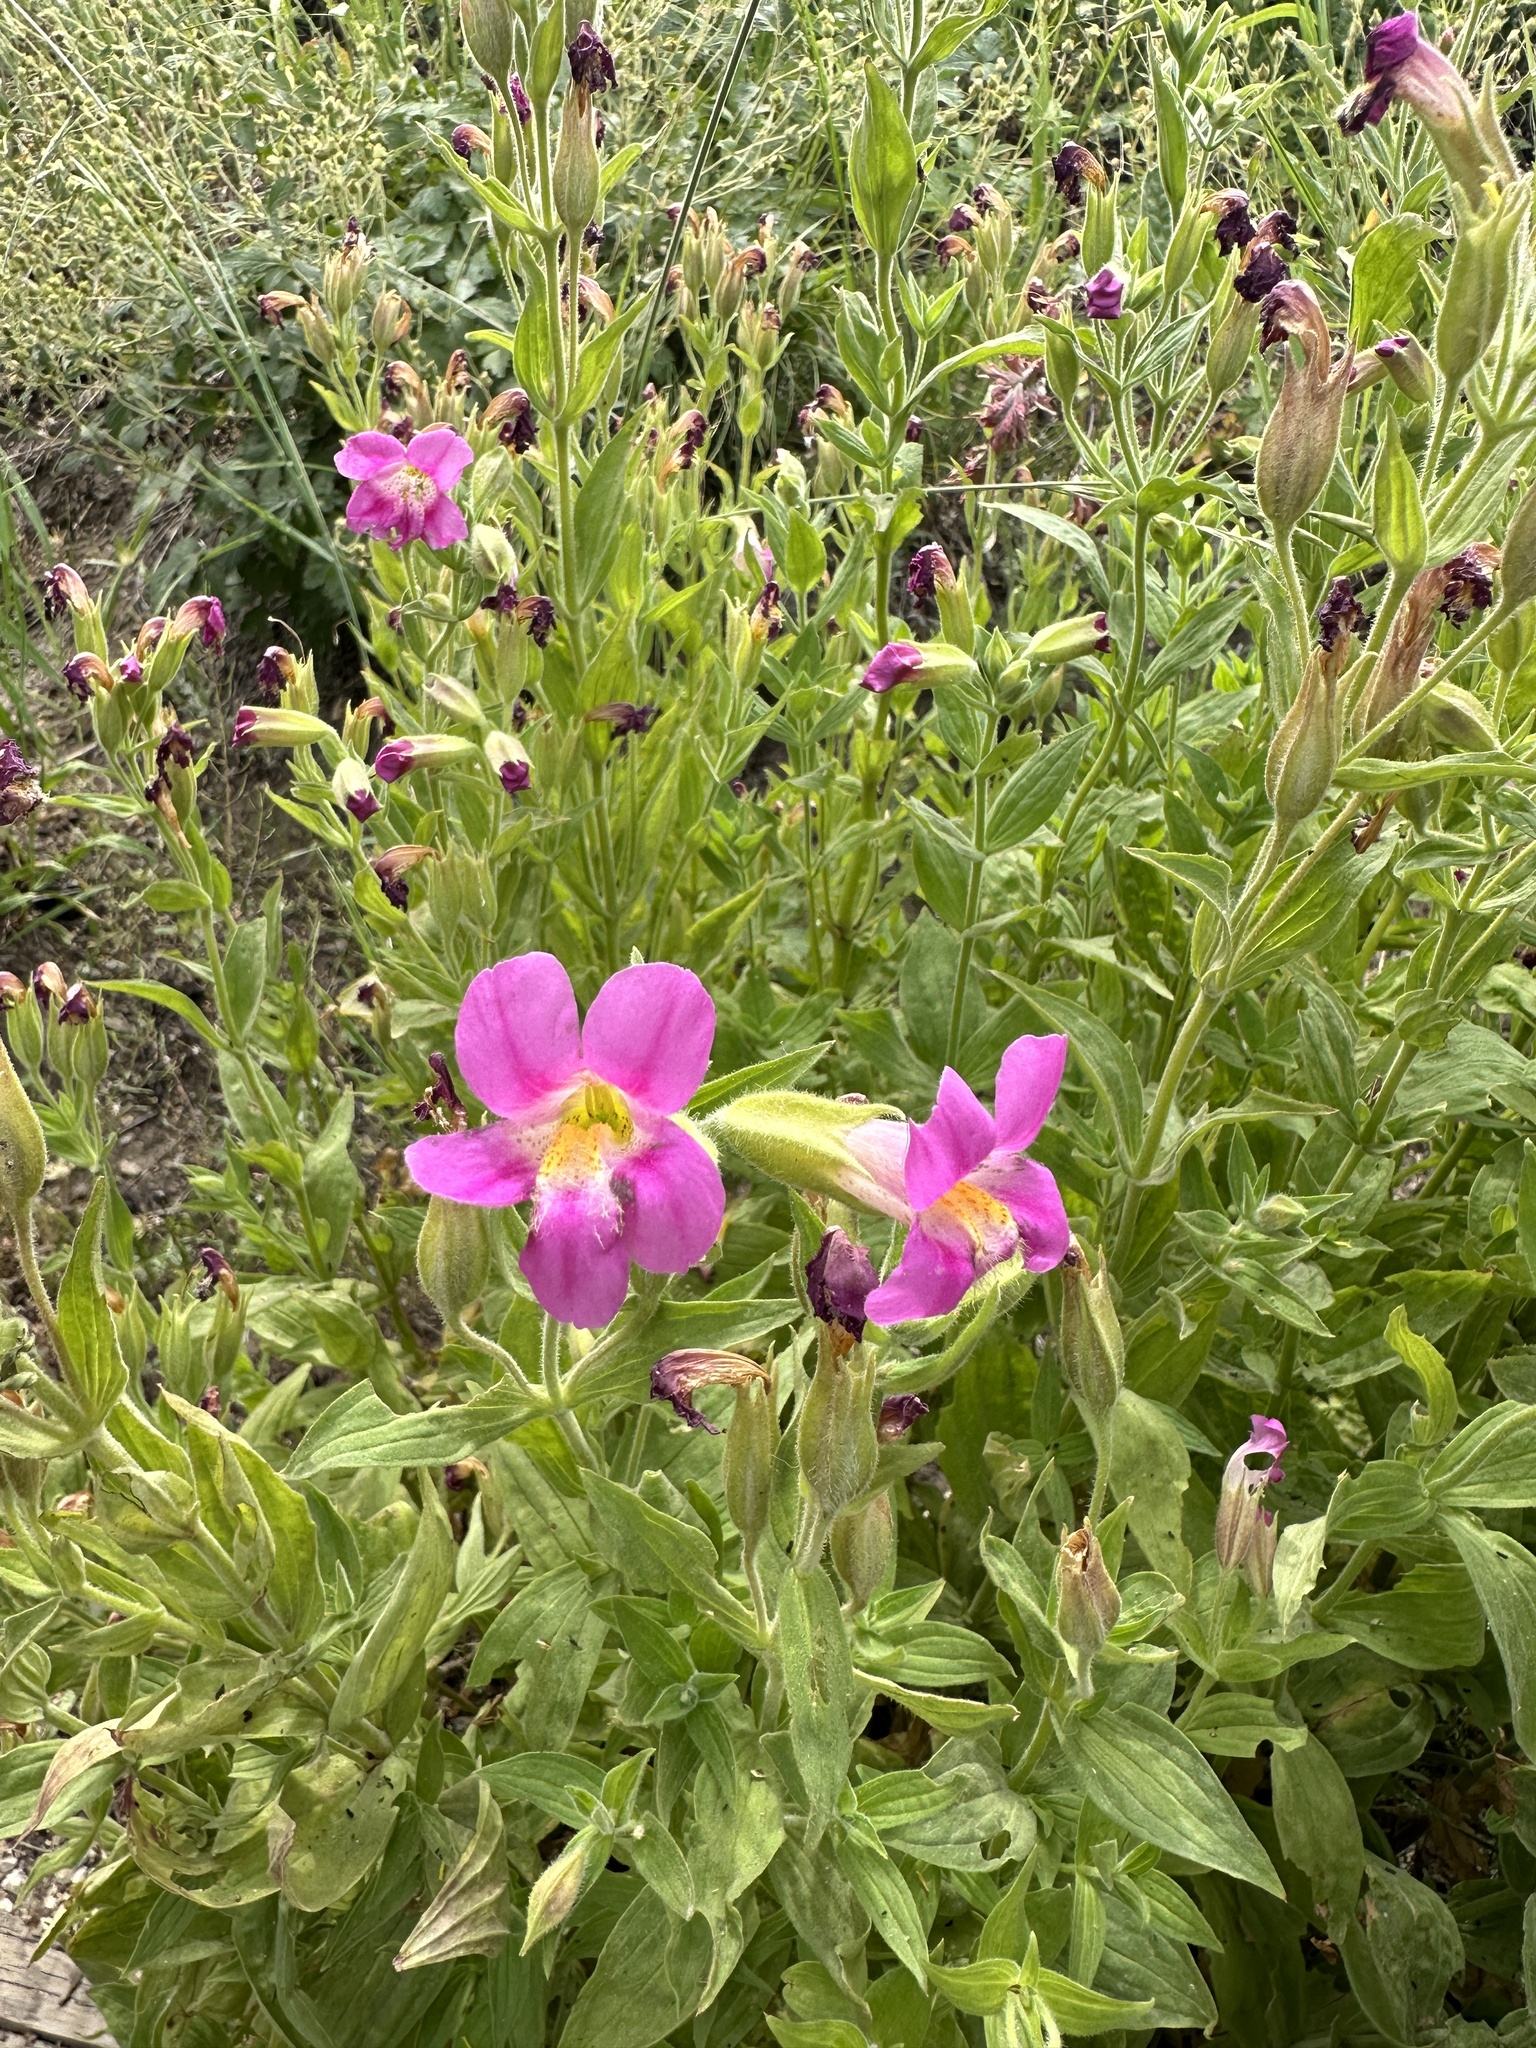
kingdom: Plantae
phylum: Tracheophyta
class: Magnoliopsida
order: Lamiales
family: Phrymaceae
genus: Erythranthe
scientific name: Erythranthe lewisii
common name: Lewis's monkey-flower
